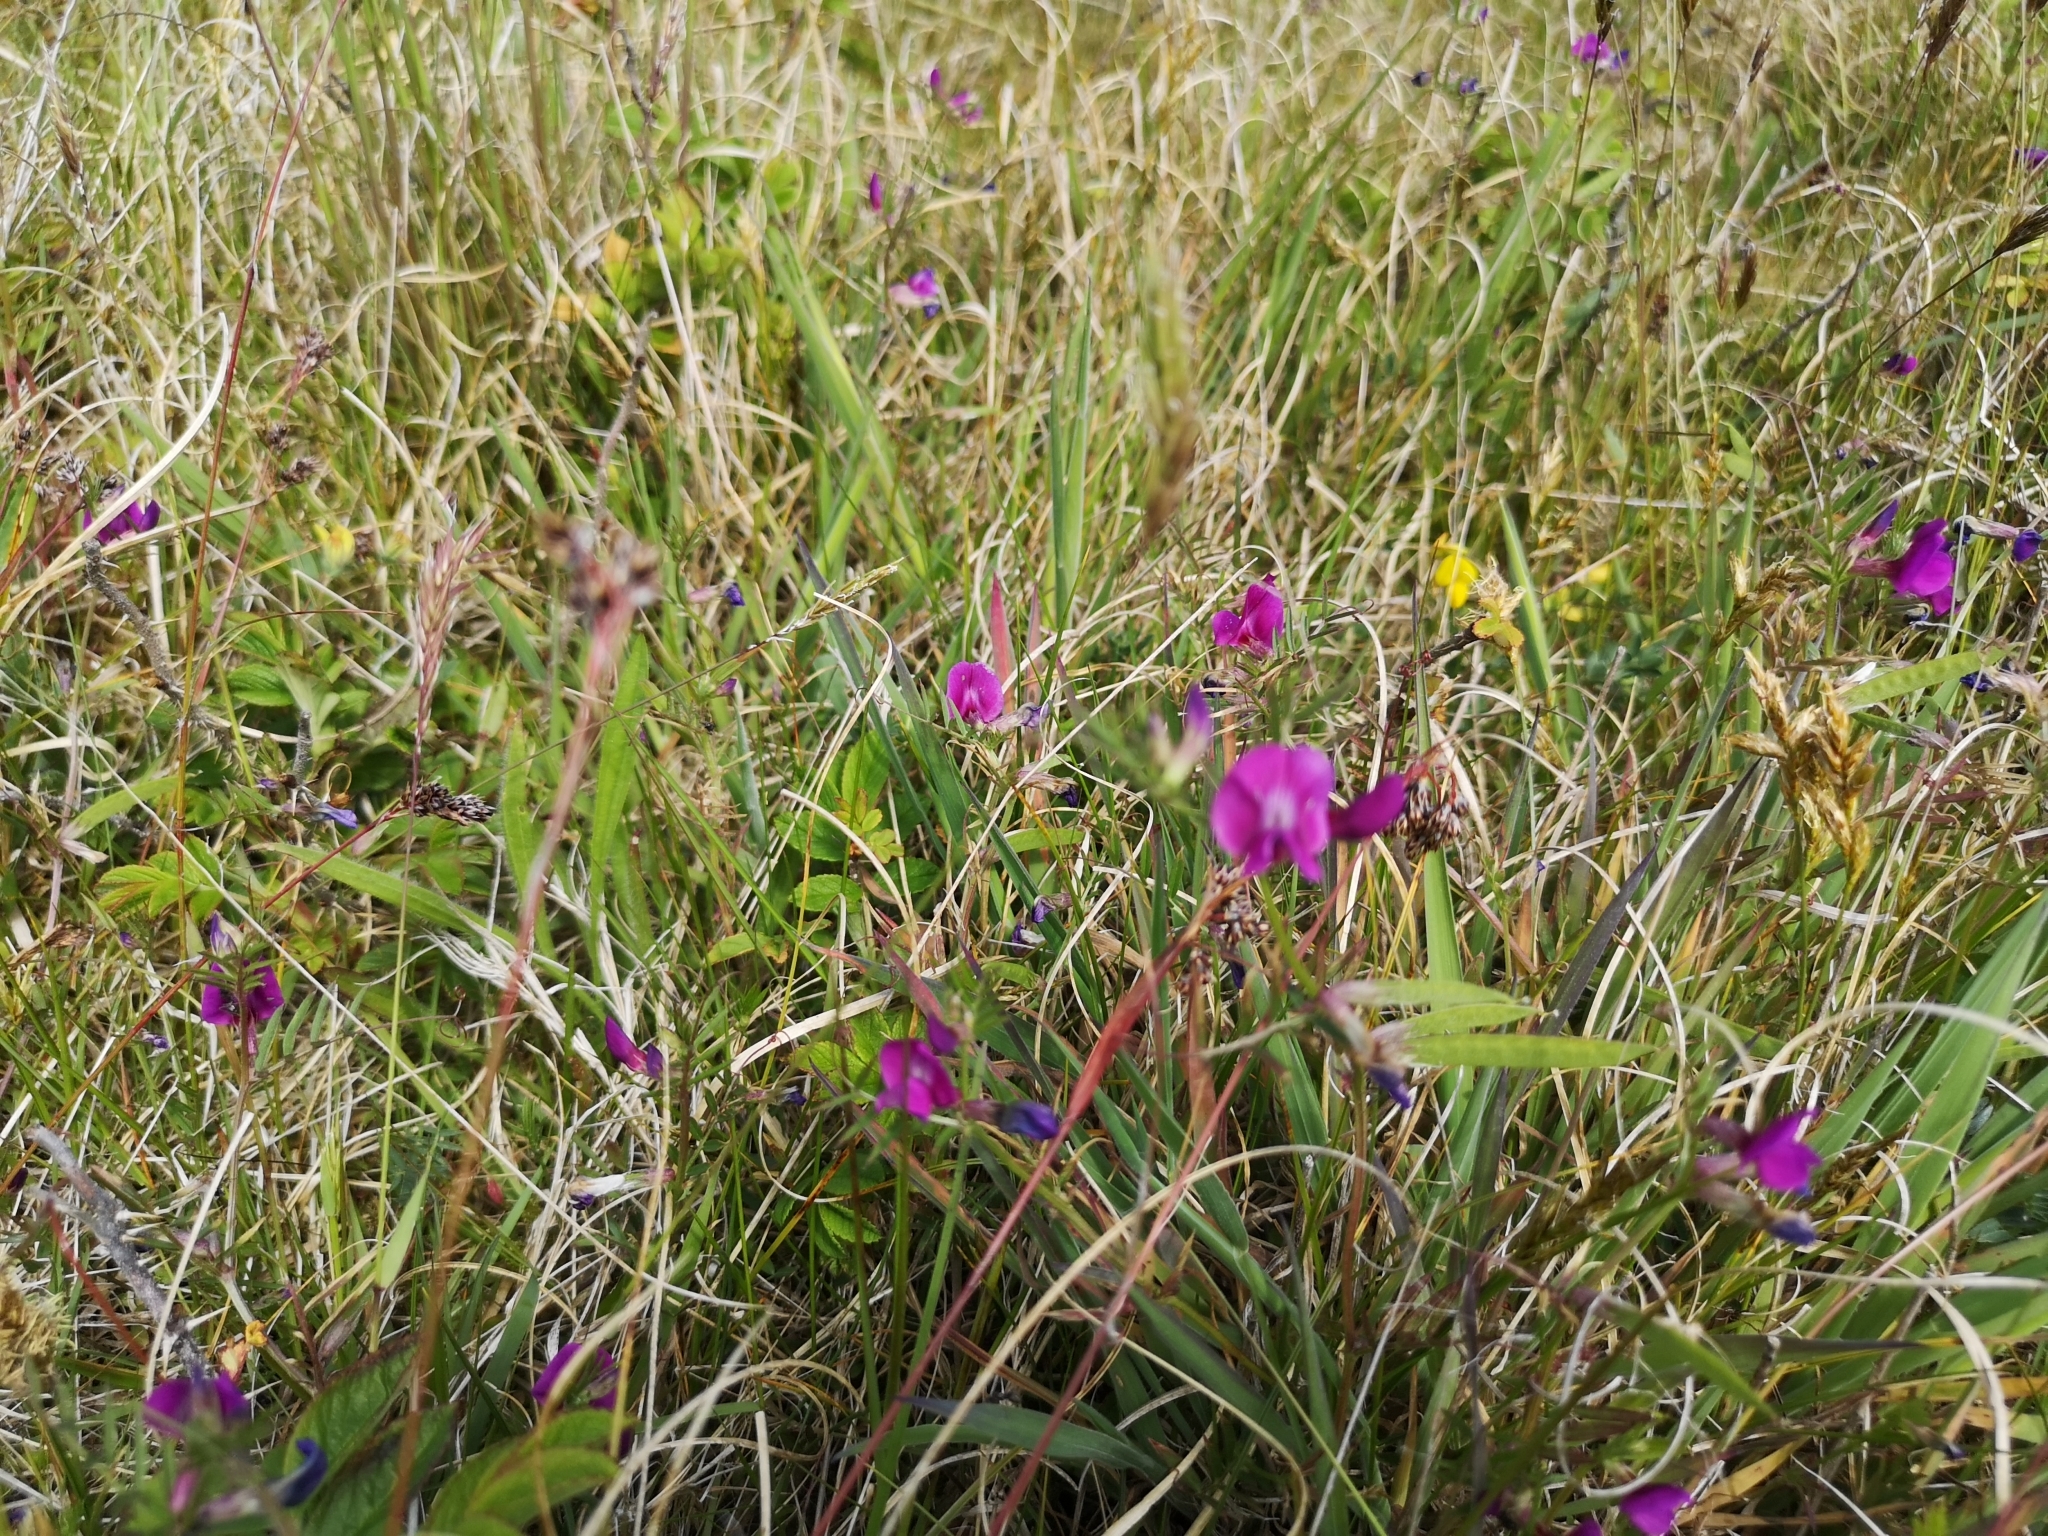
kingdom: Plantae
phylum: Tracheophyta
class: Magnoliopsida
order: Fabales
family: Fabaceae
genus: Vicia
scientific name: Vicia sativa
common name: Garden vetch
